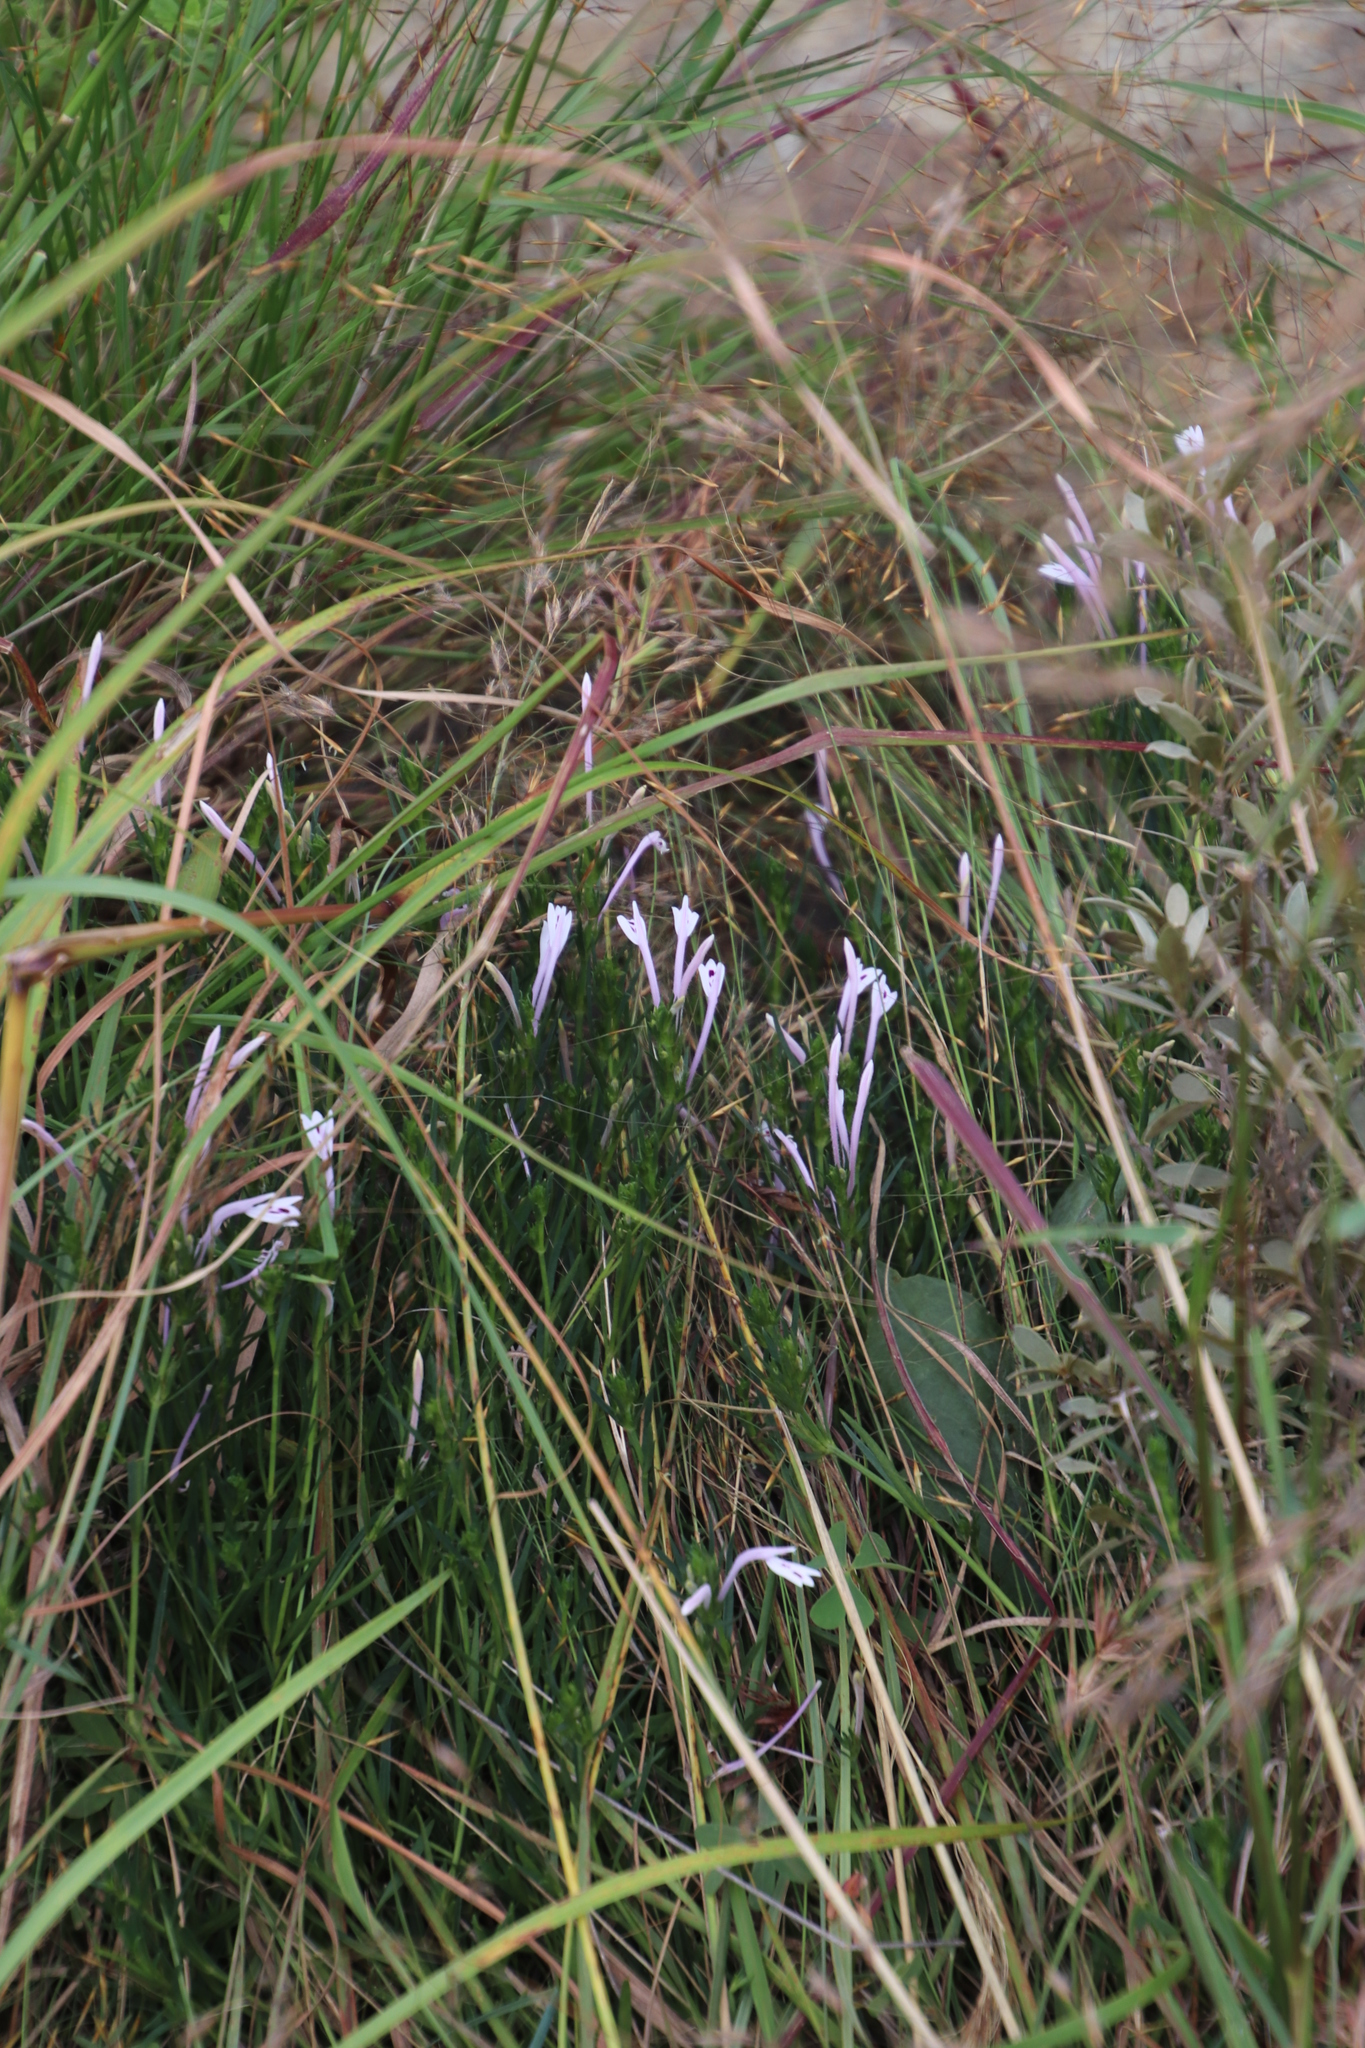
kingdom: Plantae
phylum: Tracheophyta
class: Magnoliopsida
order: Lamiales
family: Acanthaceae
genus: Justicia
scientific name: Justicia linifolia
